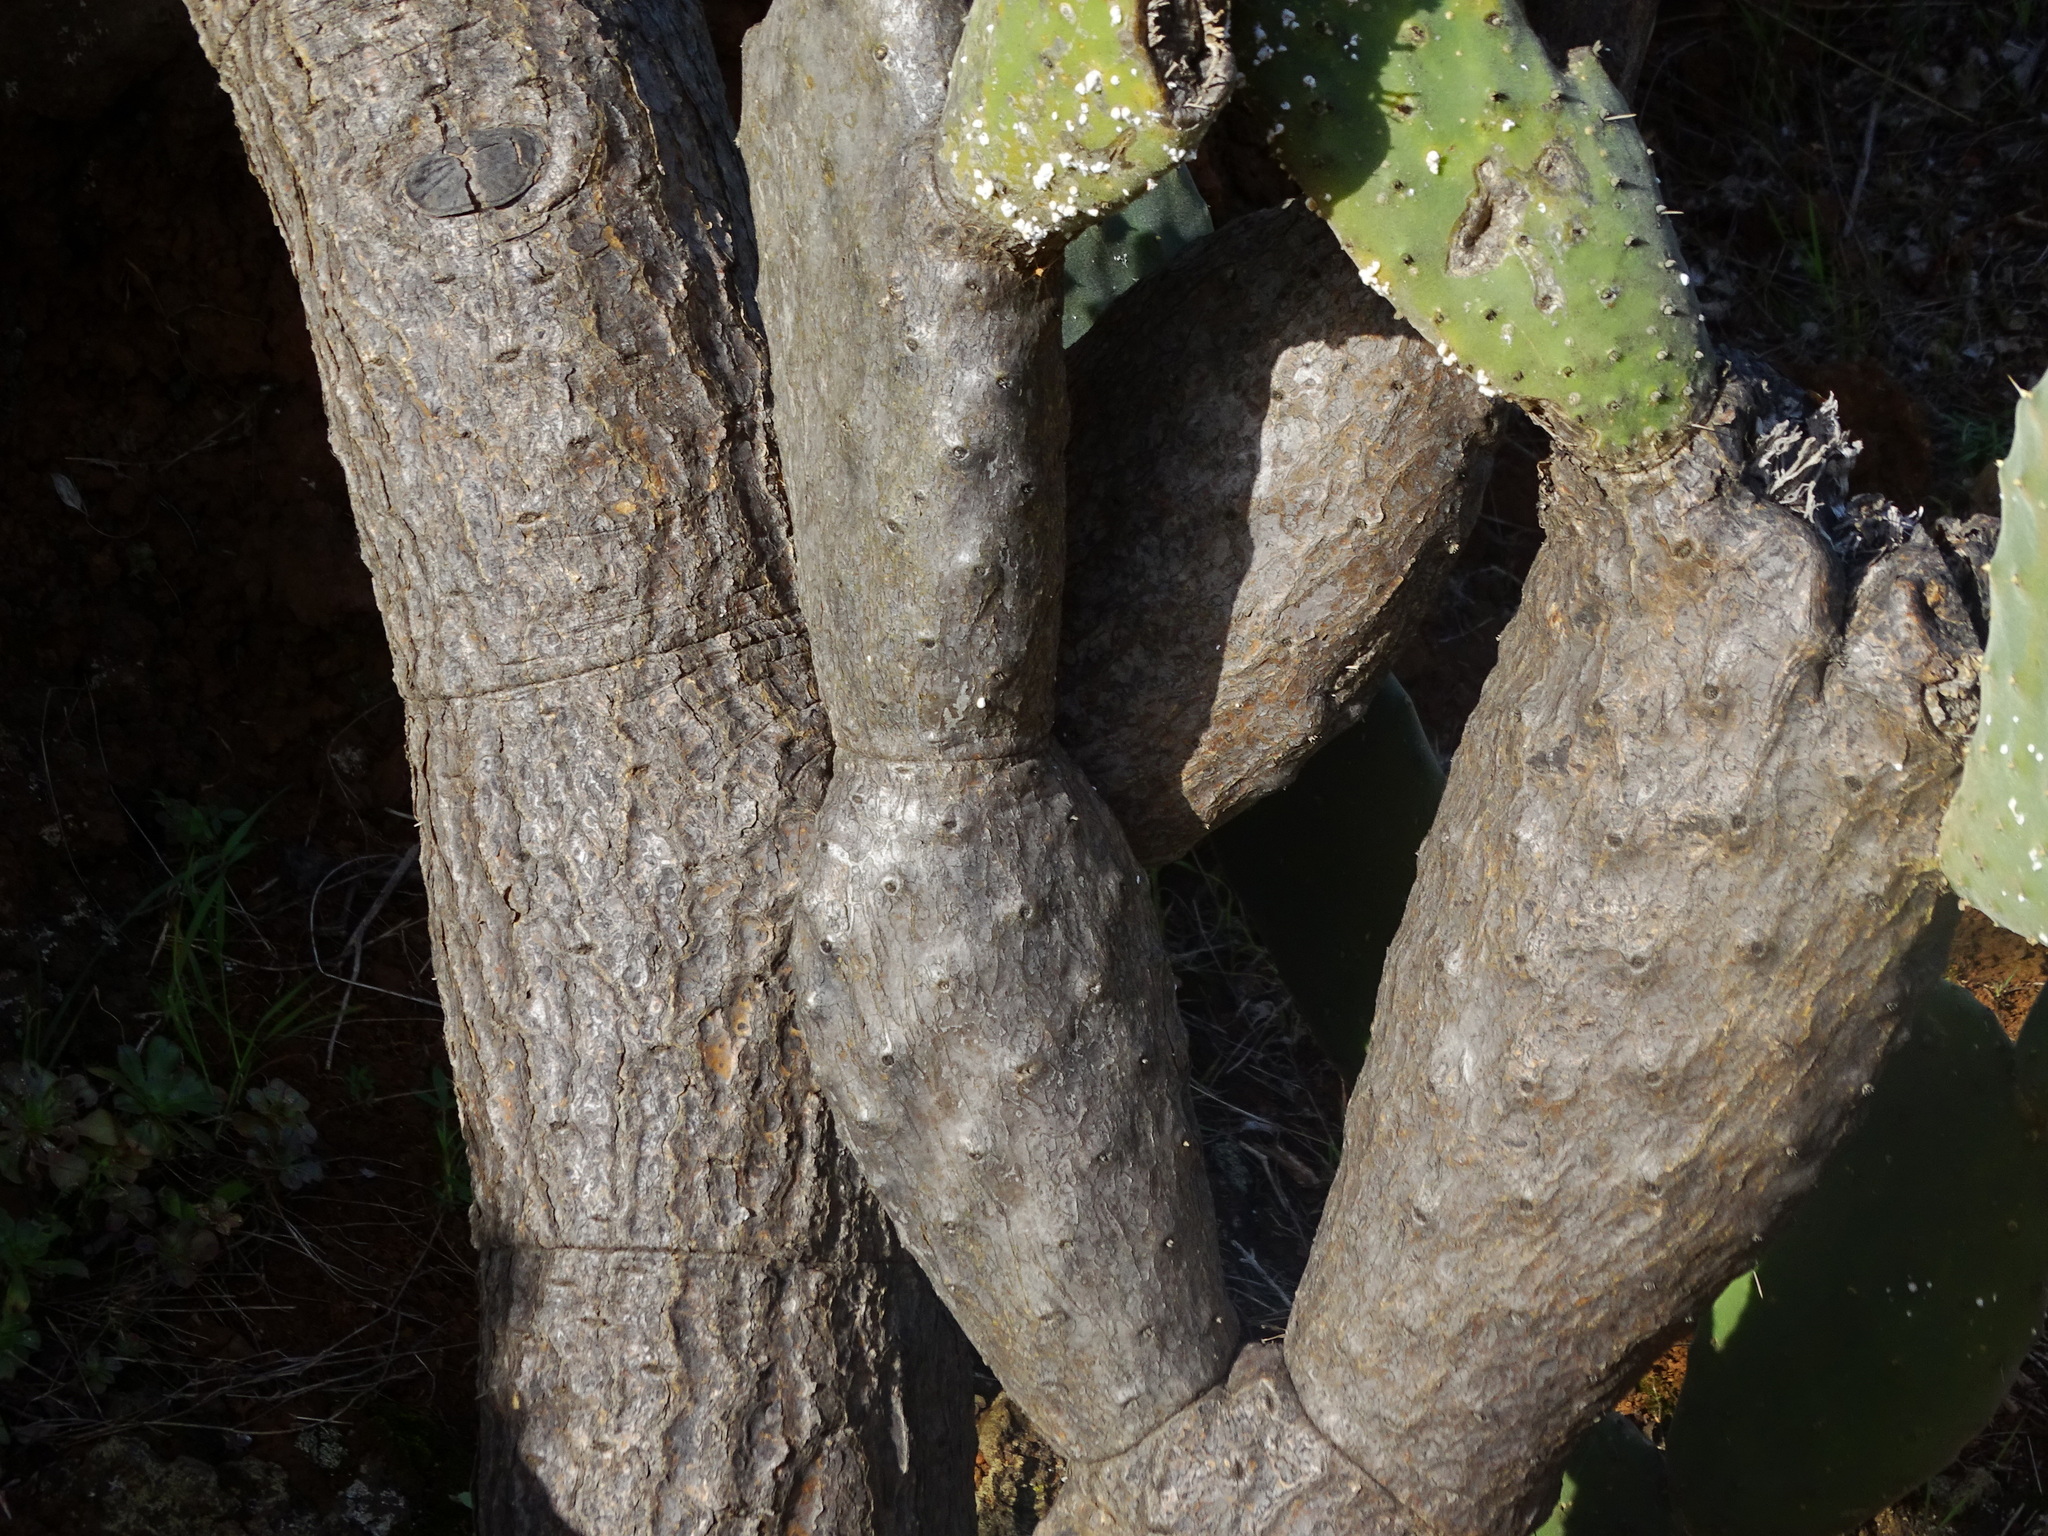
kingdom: Plantae
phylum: Tracheophyta
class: Magnoliopsida
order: Caryophyllales
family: Cactaceae
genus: Opuntia
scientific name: Opuntia tomentosa
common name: Woollyjoint pricklypear
